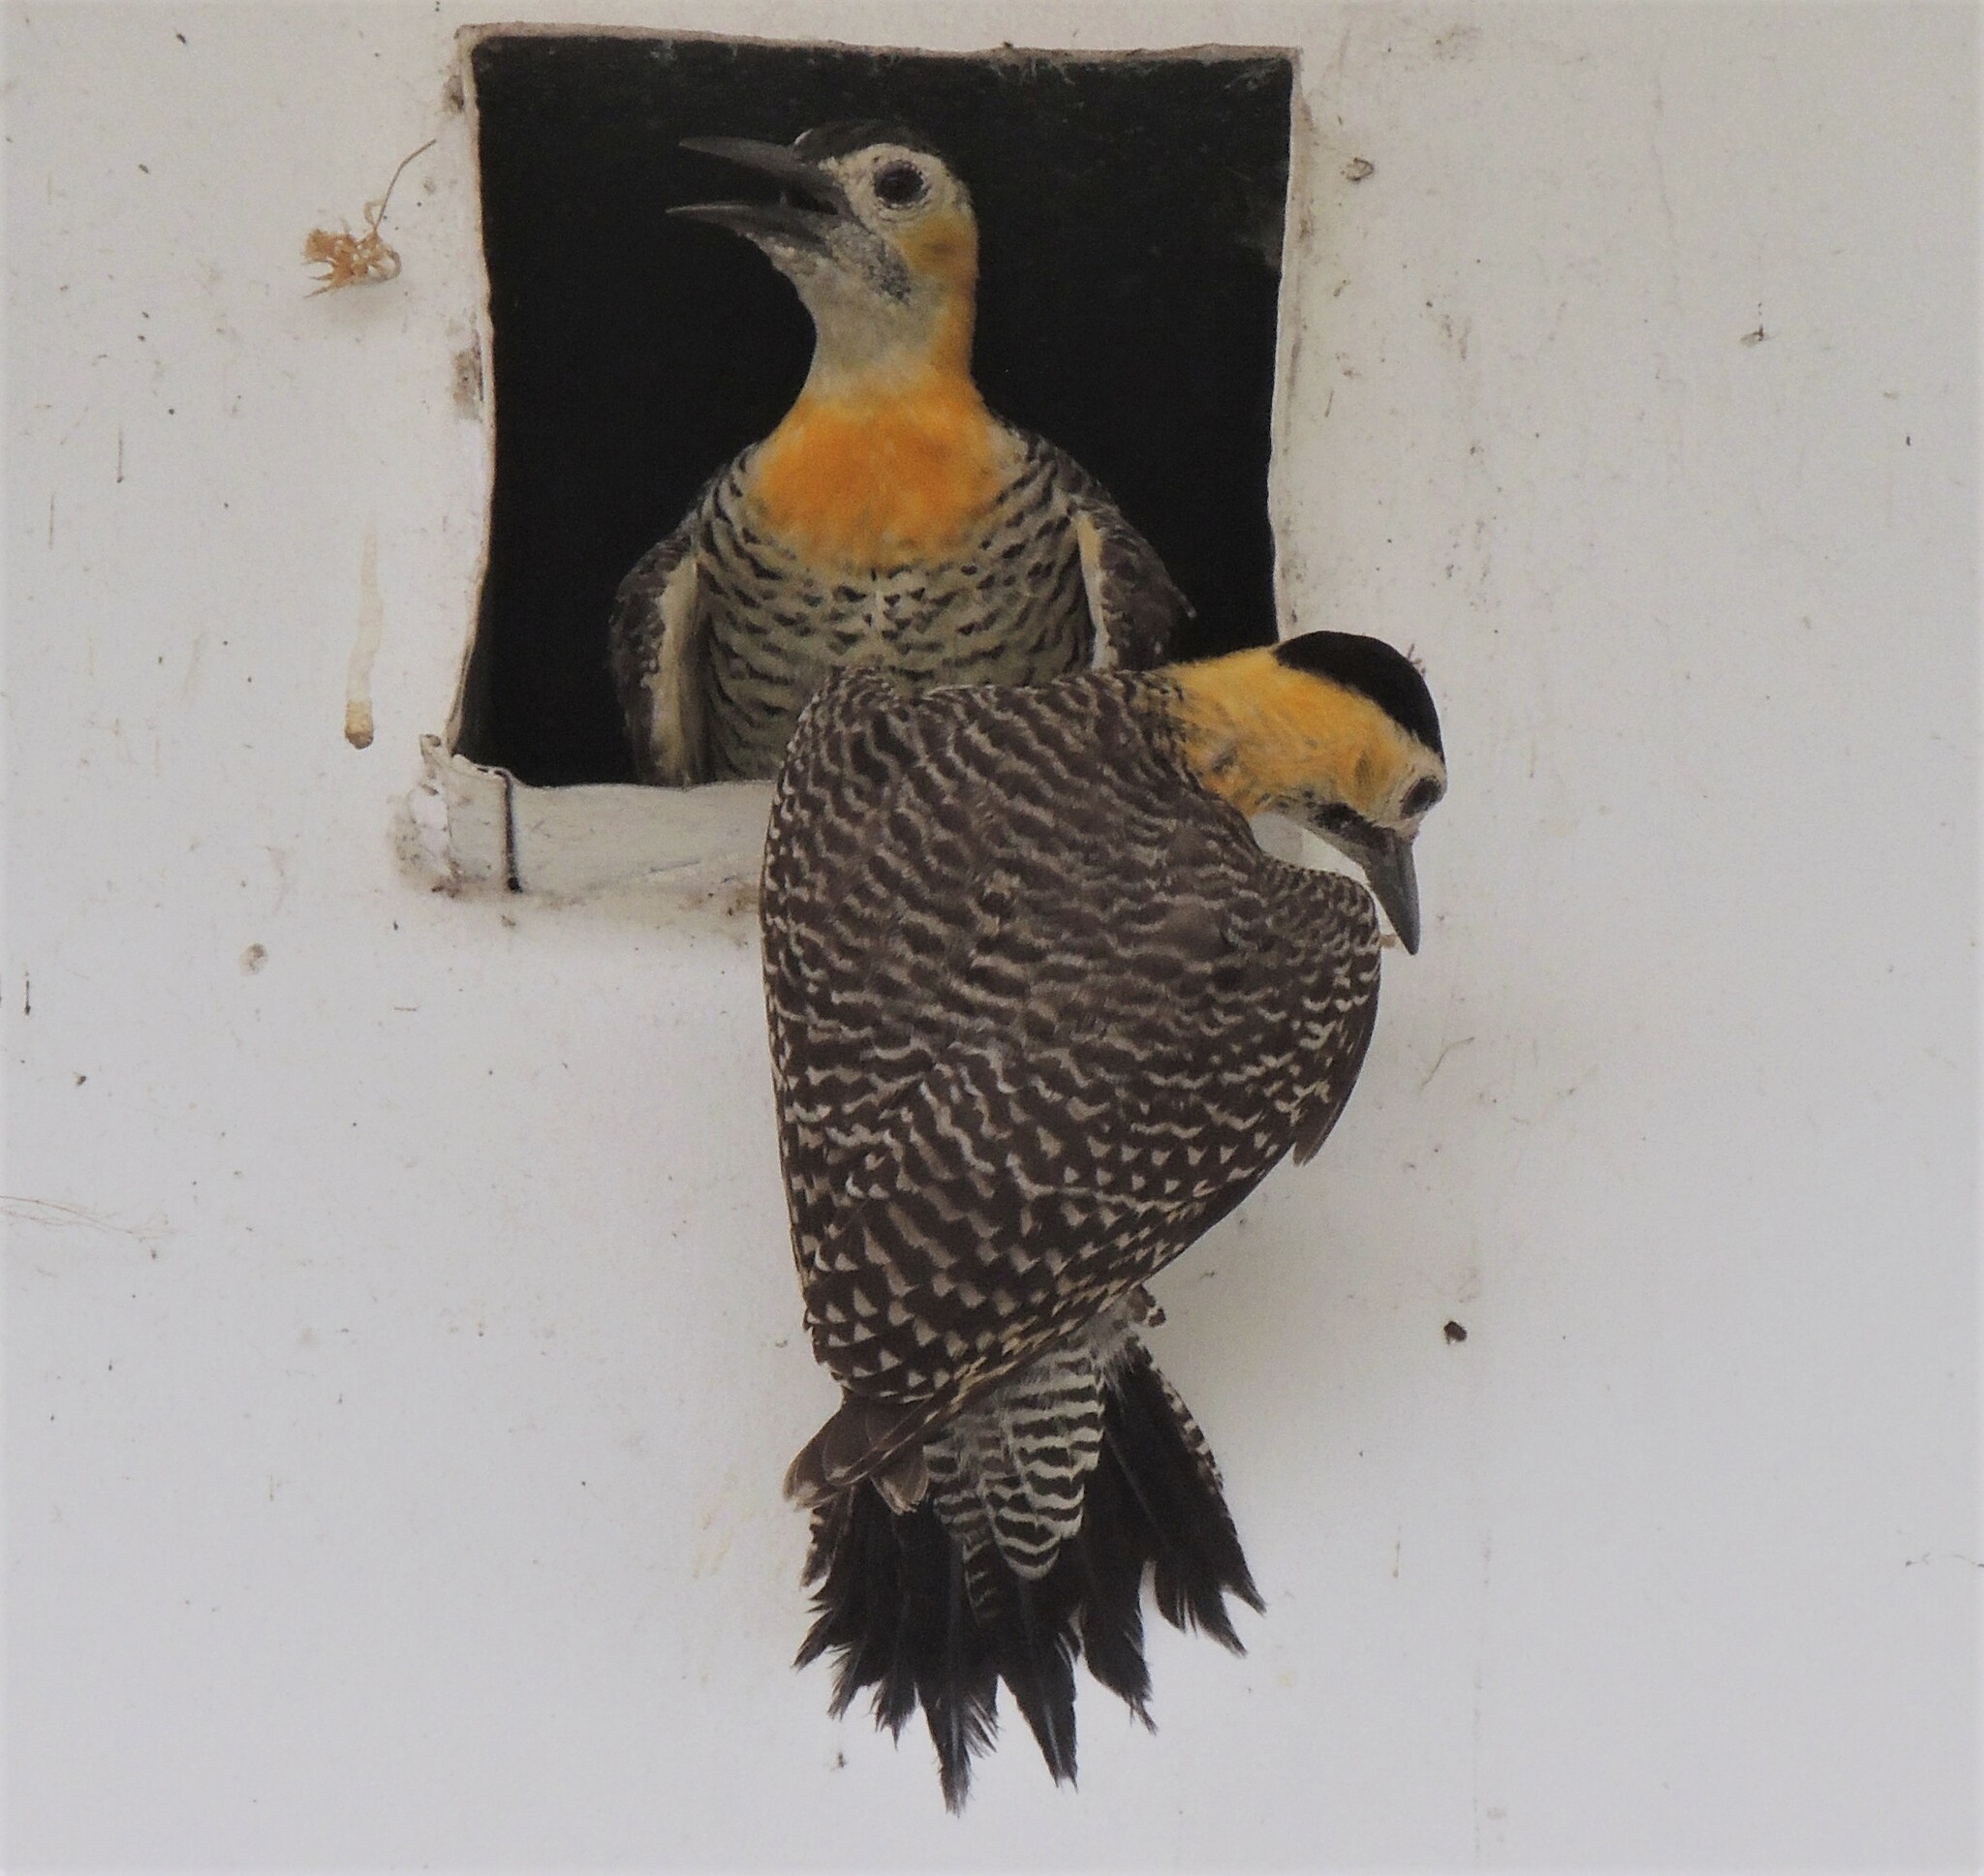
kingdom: Animalia
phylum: Chordata
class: Aves
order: Piciformes
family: Picidae
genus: Colaptes
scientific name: Colaptes campestris
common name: Campo flicker
